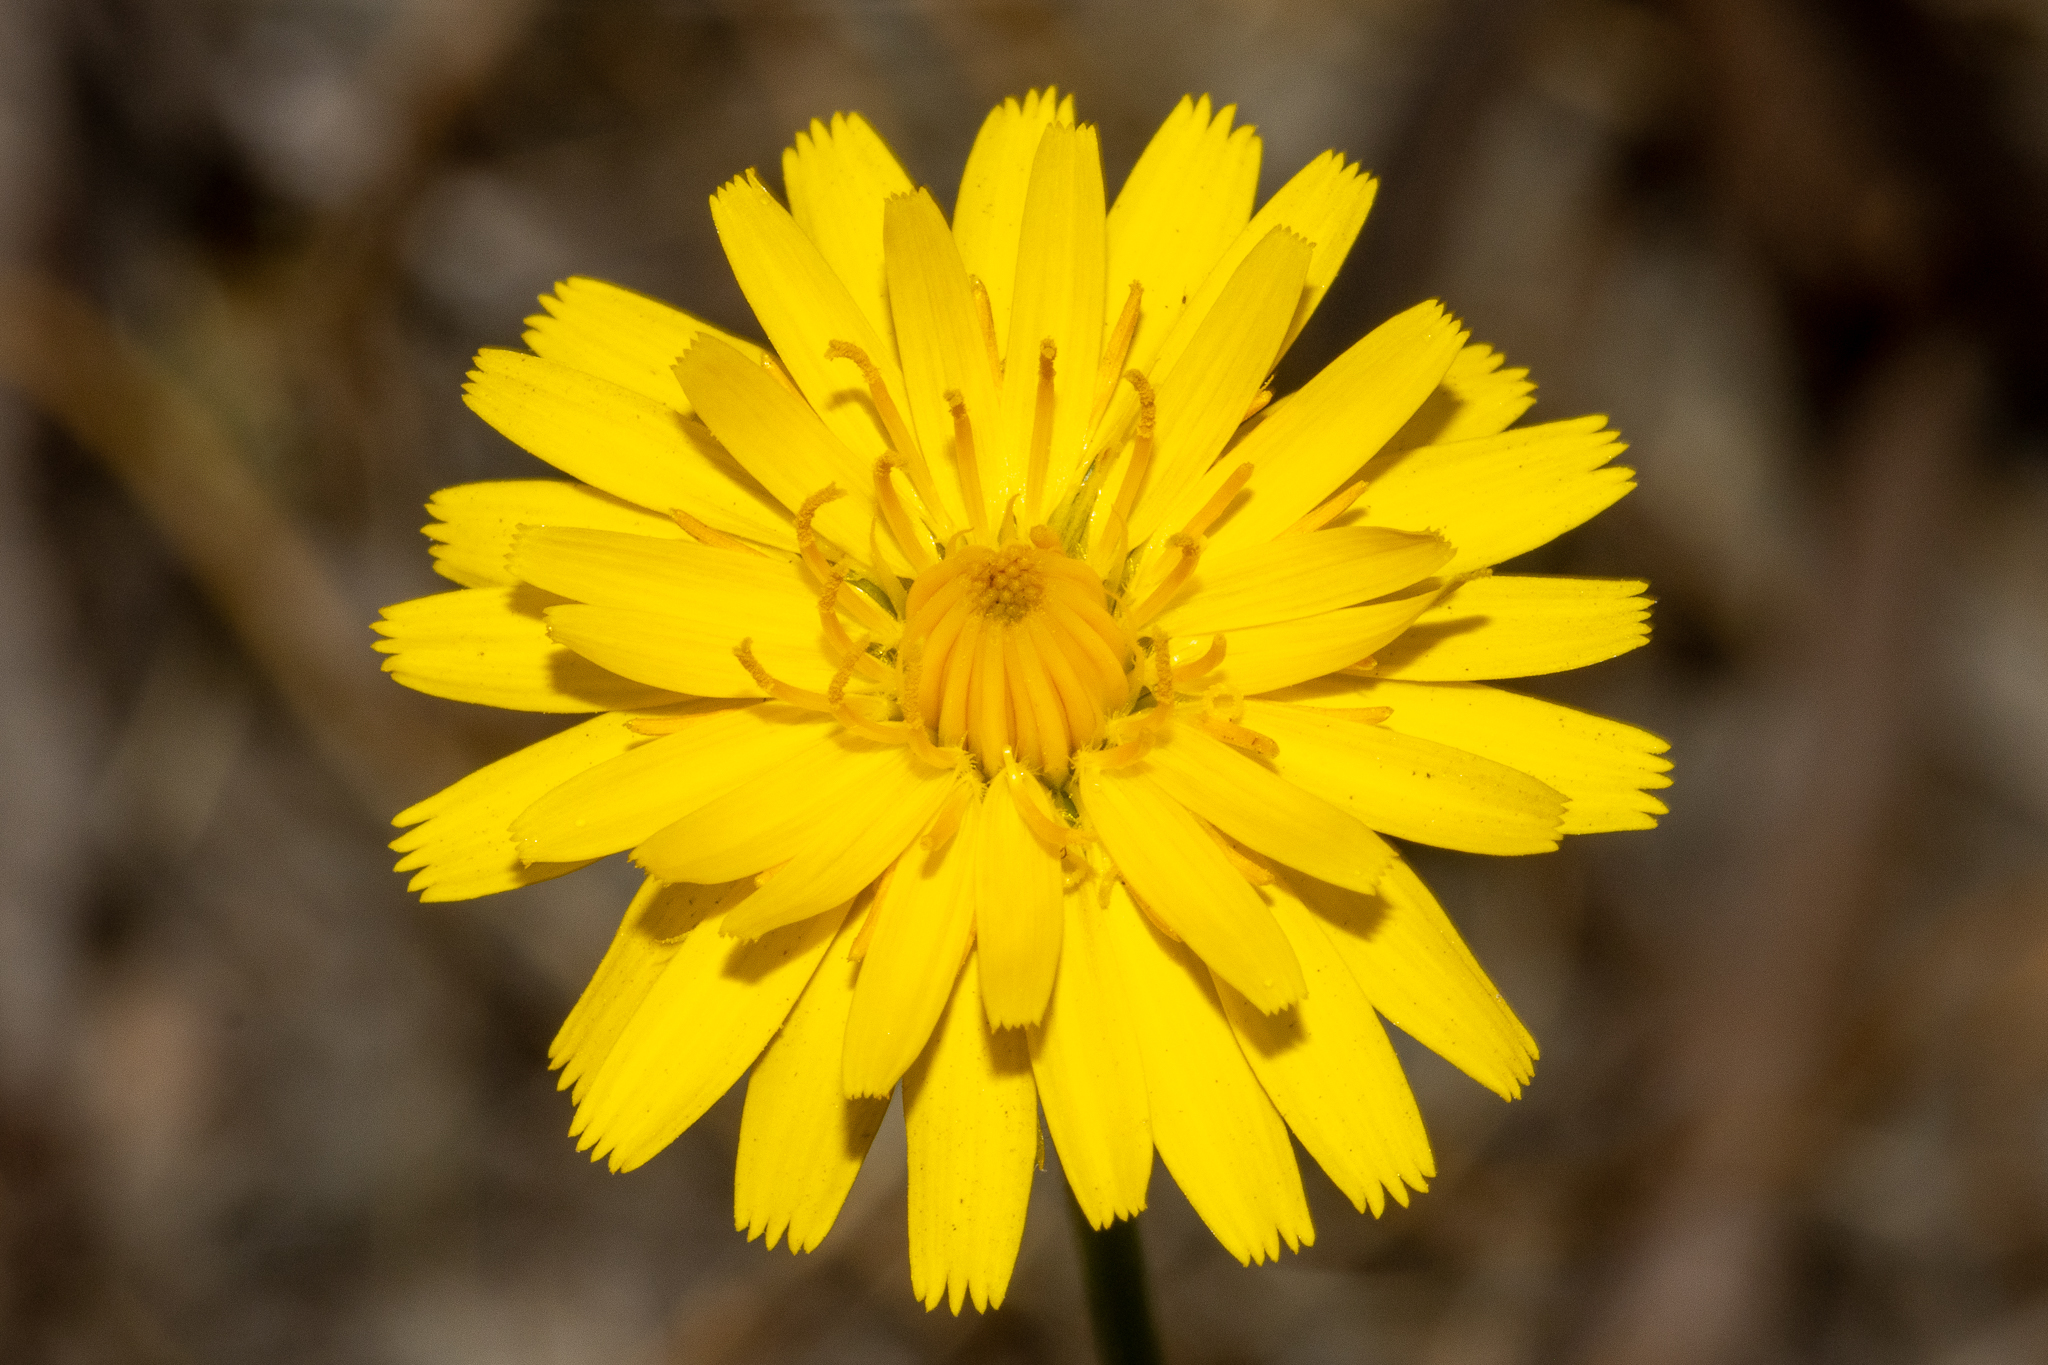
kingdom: Plantae
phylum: Tracheophyta
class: Magnoliopsida
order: Asterales
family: Asteraceae
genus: Hypochaeris
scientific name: Hypochaeris radicata
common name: Flatweed
